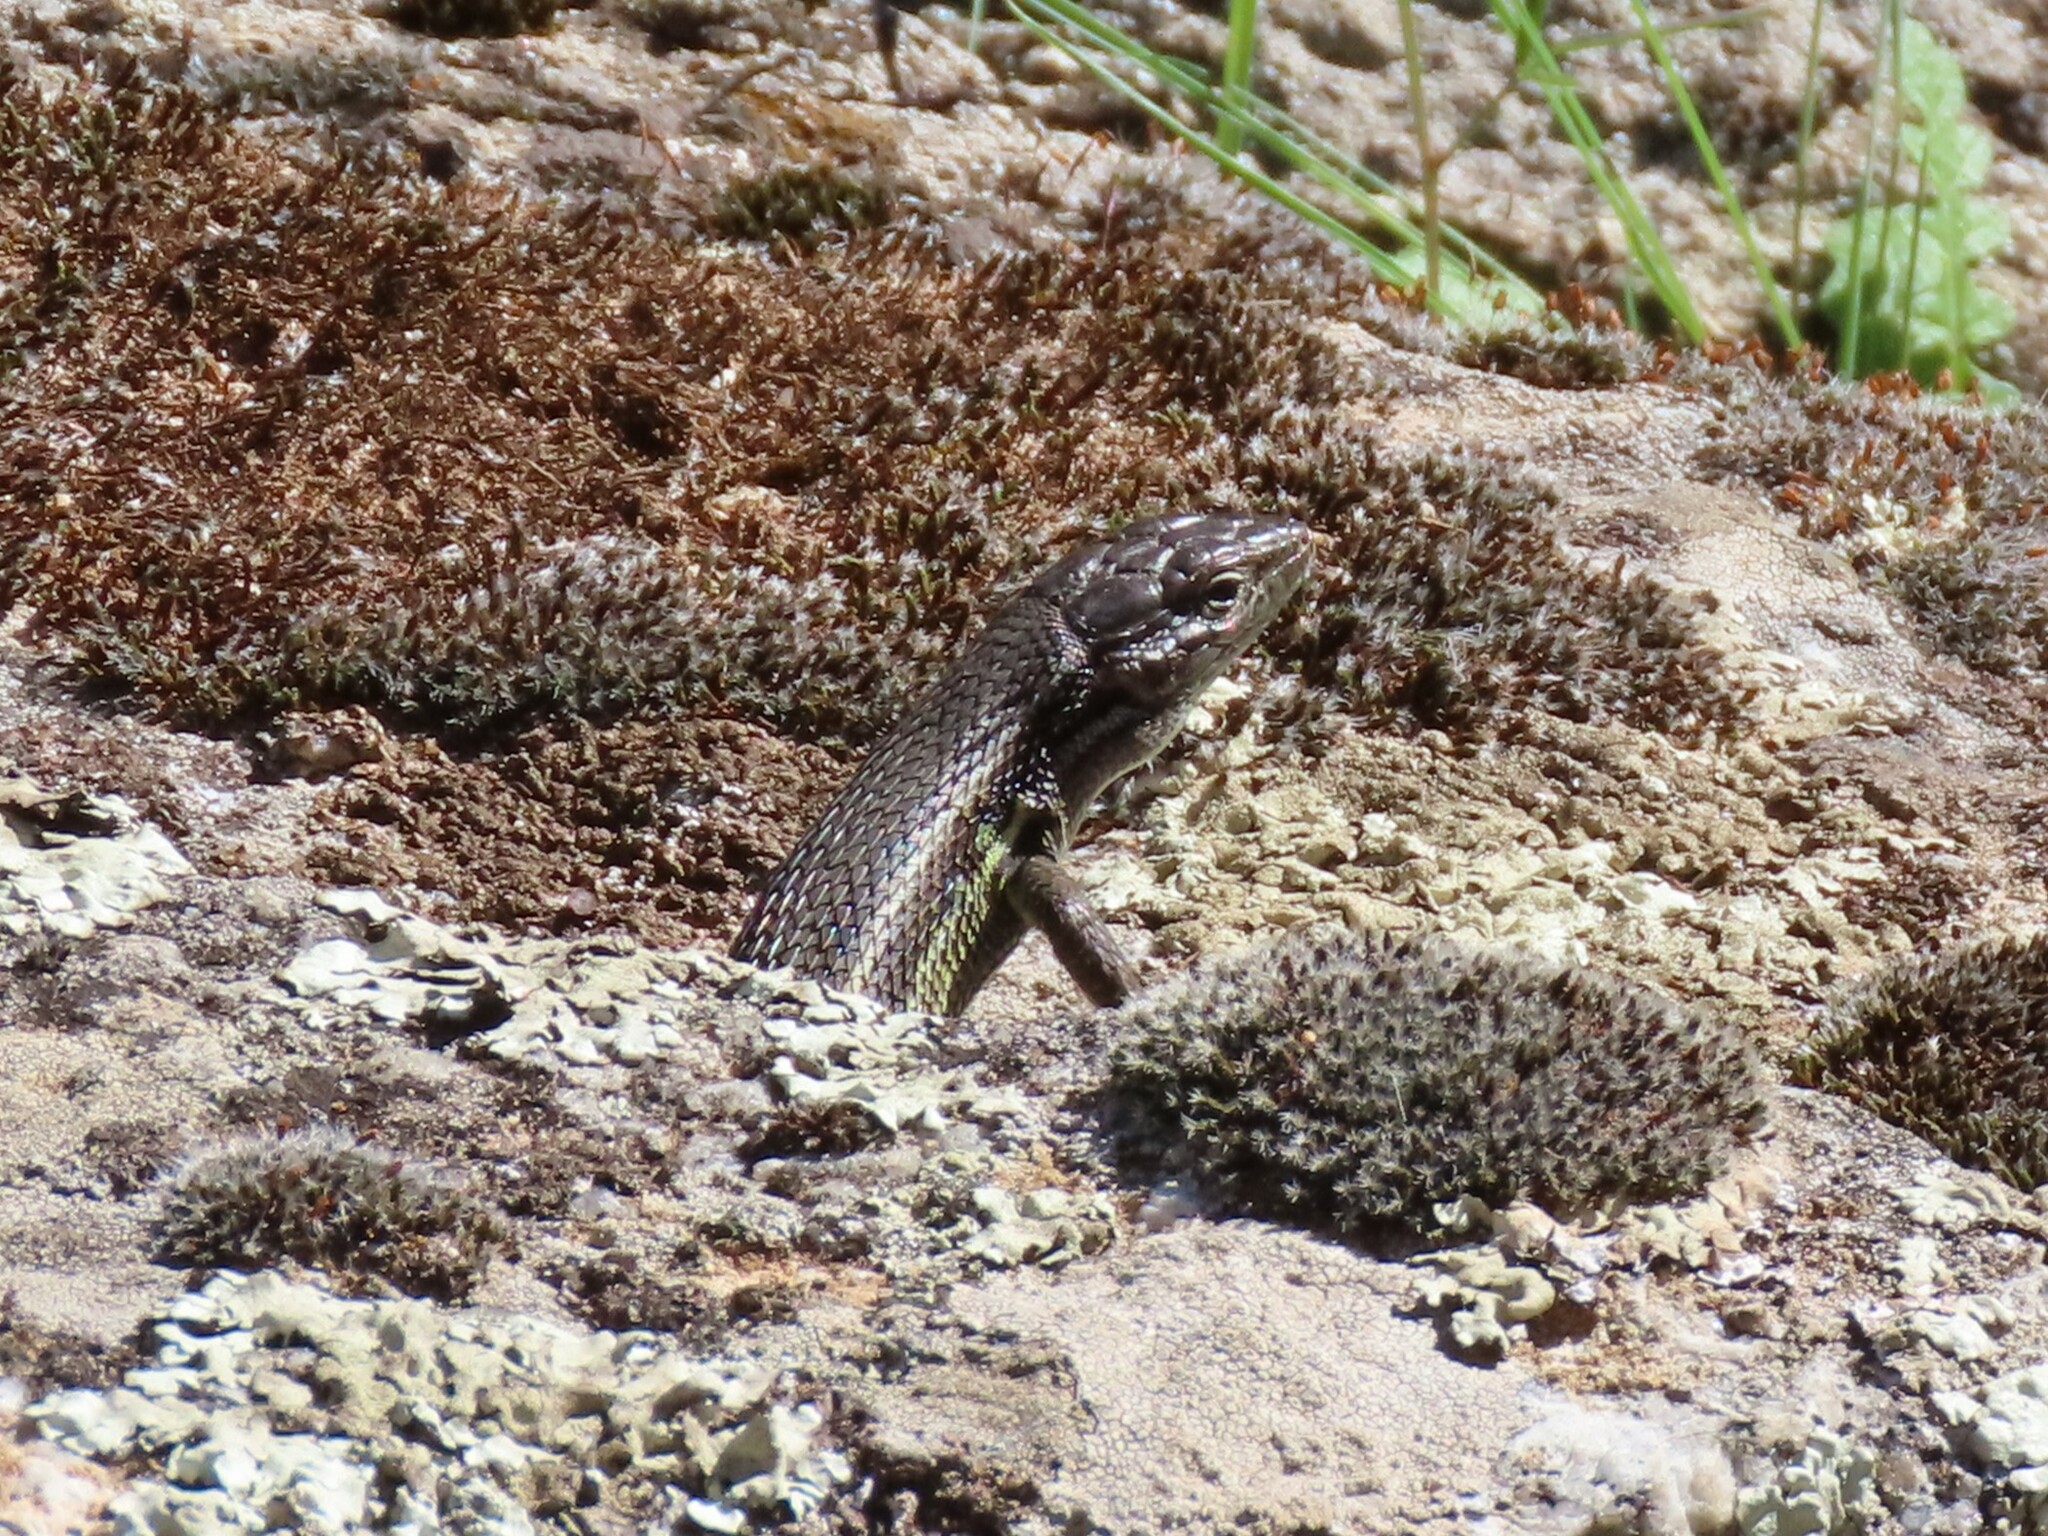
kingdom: Animalia
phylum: Chordata
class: Squamata
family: Lacertidae
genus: Psammodromus
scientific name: Psammodromus algirus
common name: Algerian psammodromus
